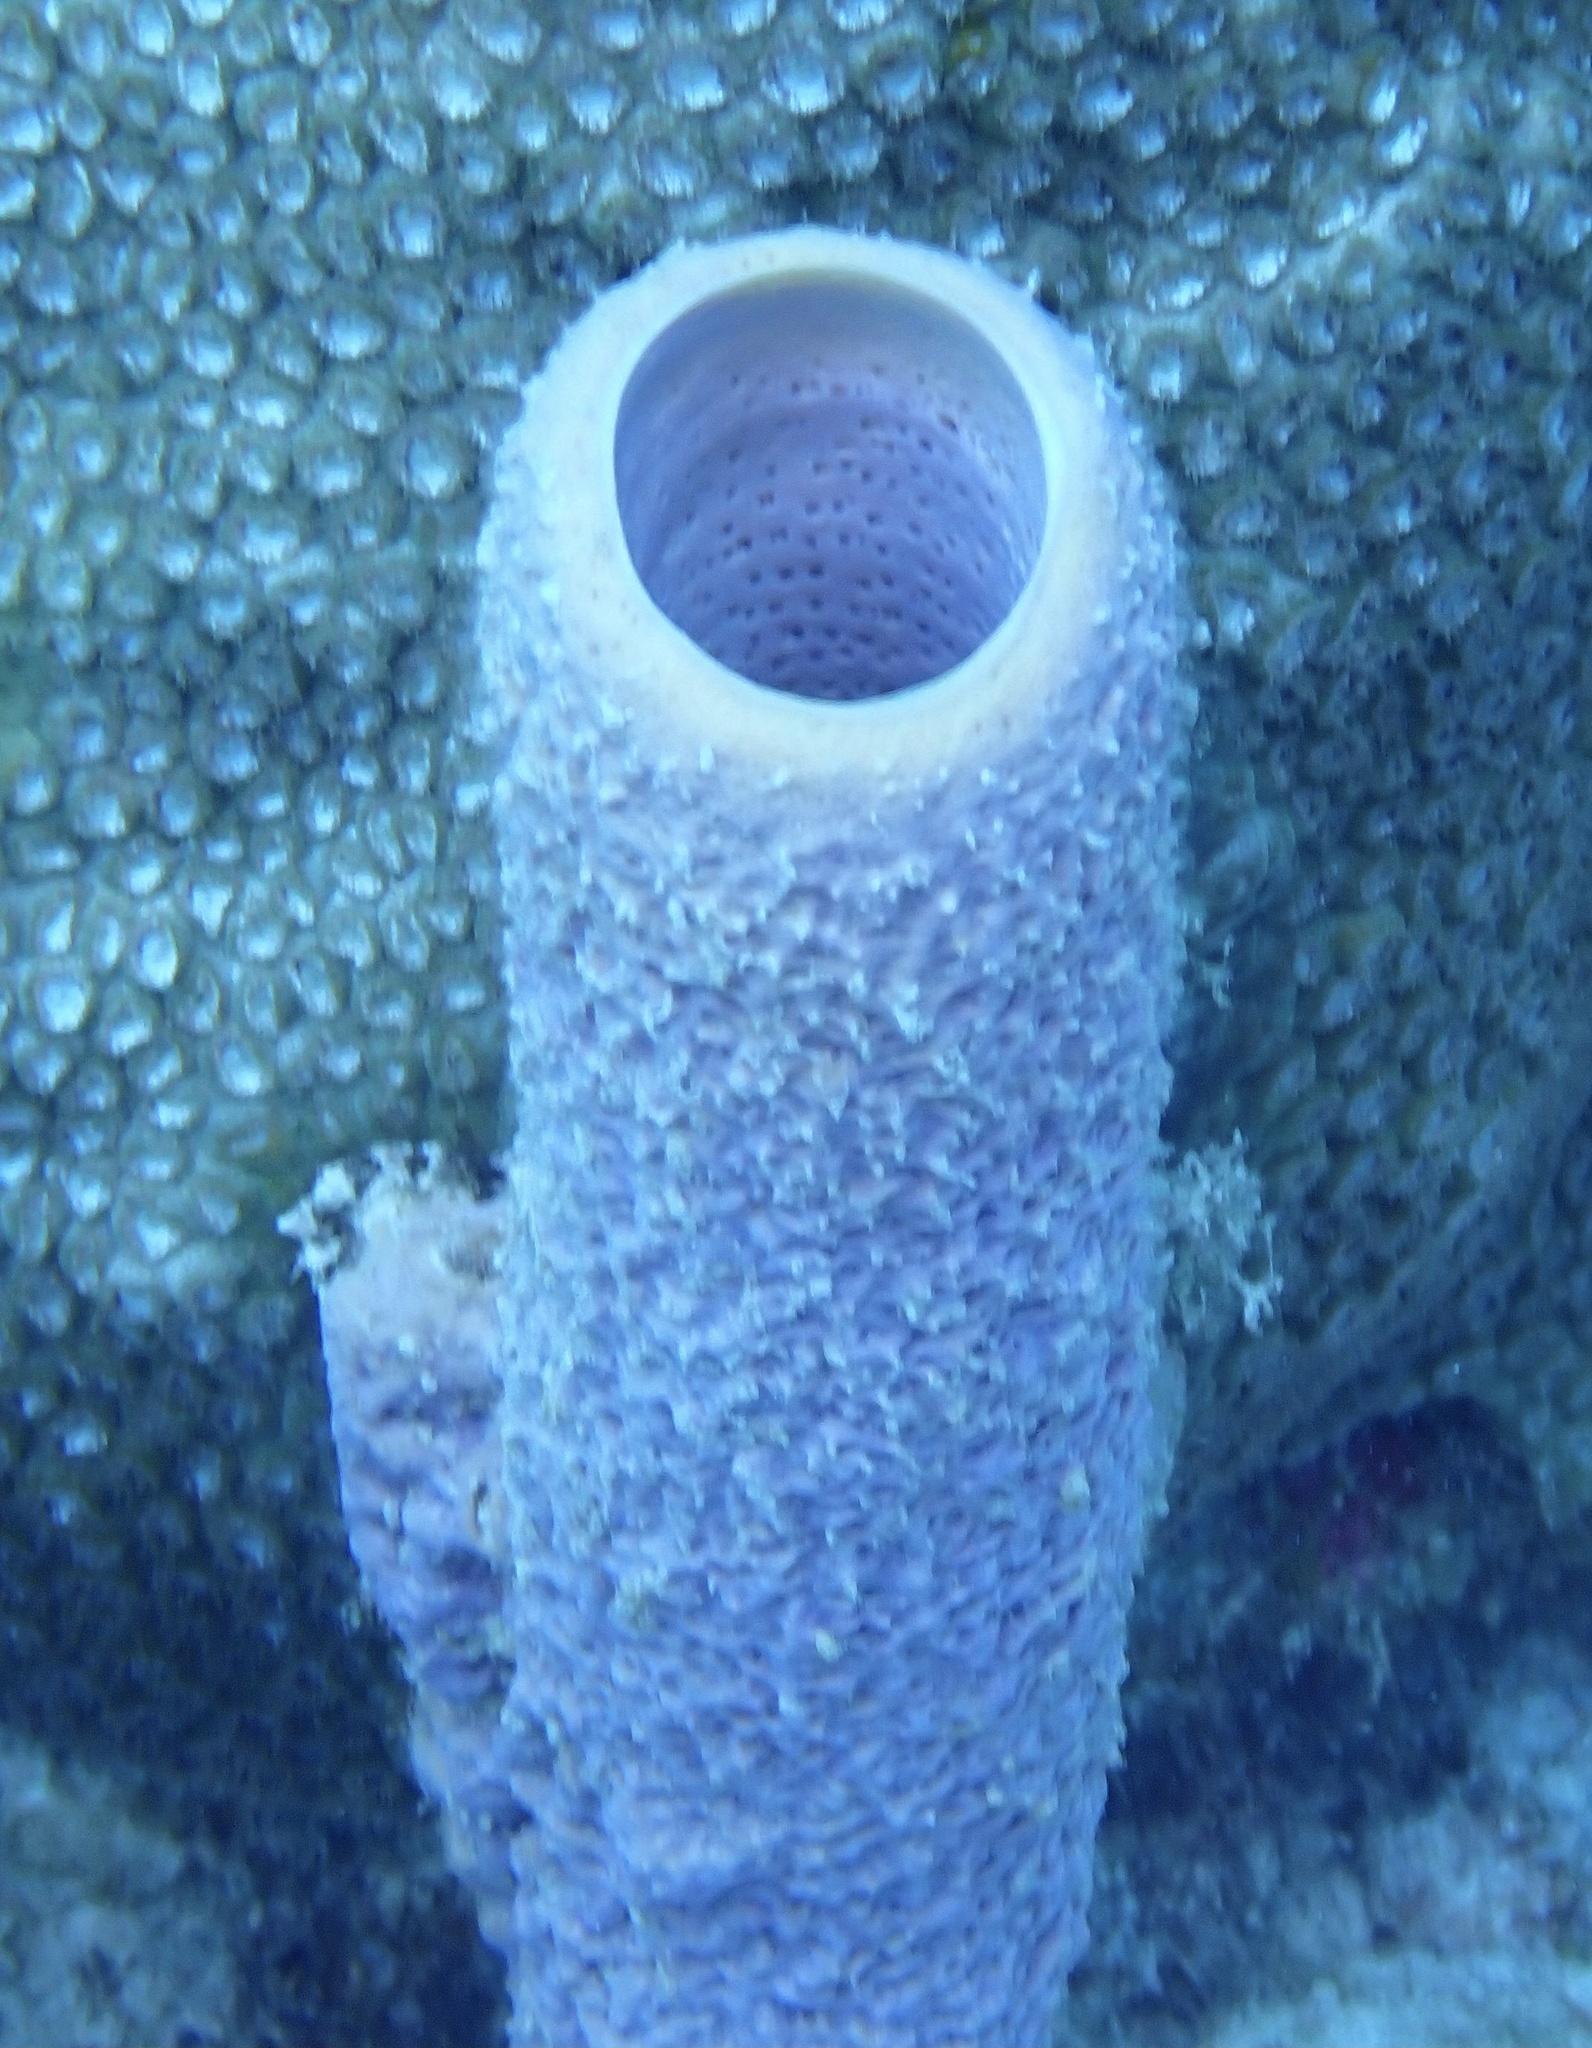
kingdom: Animalia
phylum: Porifera
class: Demospongiae
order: Verongiida
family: Aplysinidae
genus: Aplysina
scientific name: Aplysina archeri
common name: Stove-pipe sponge
